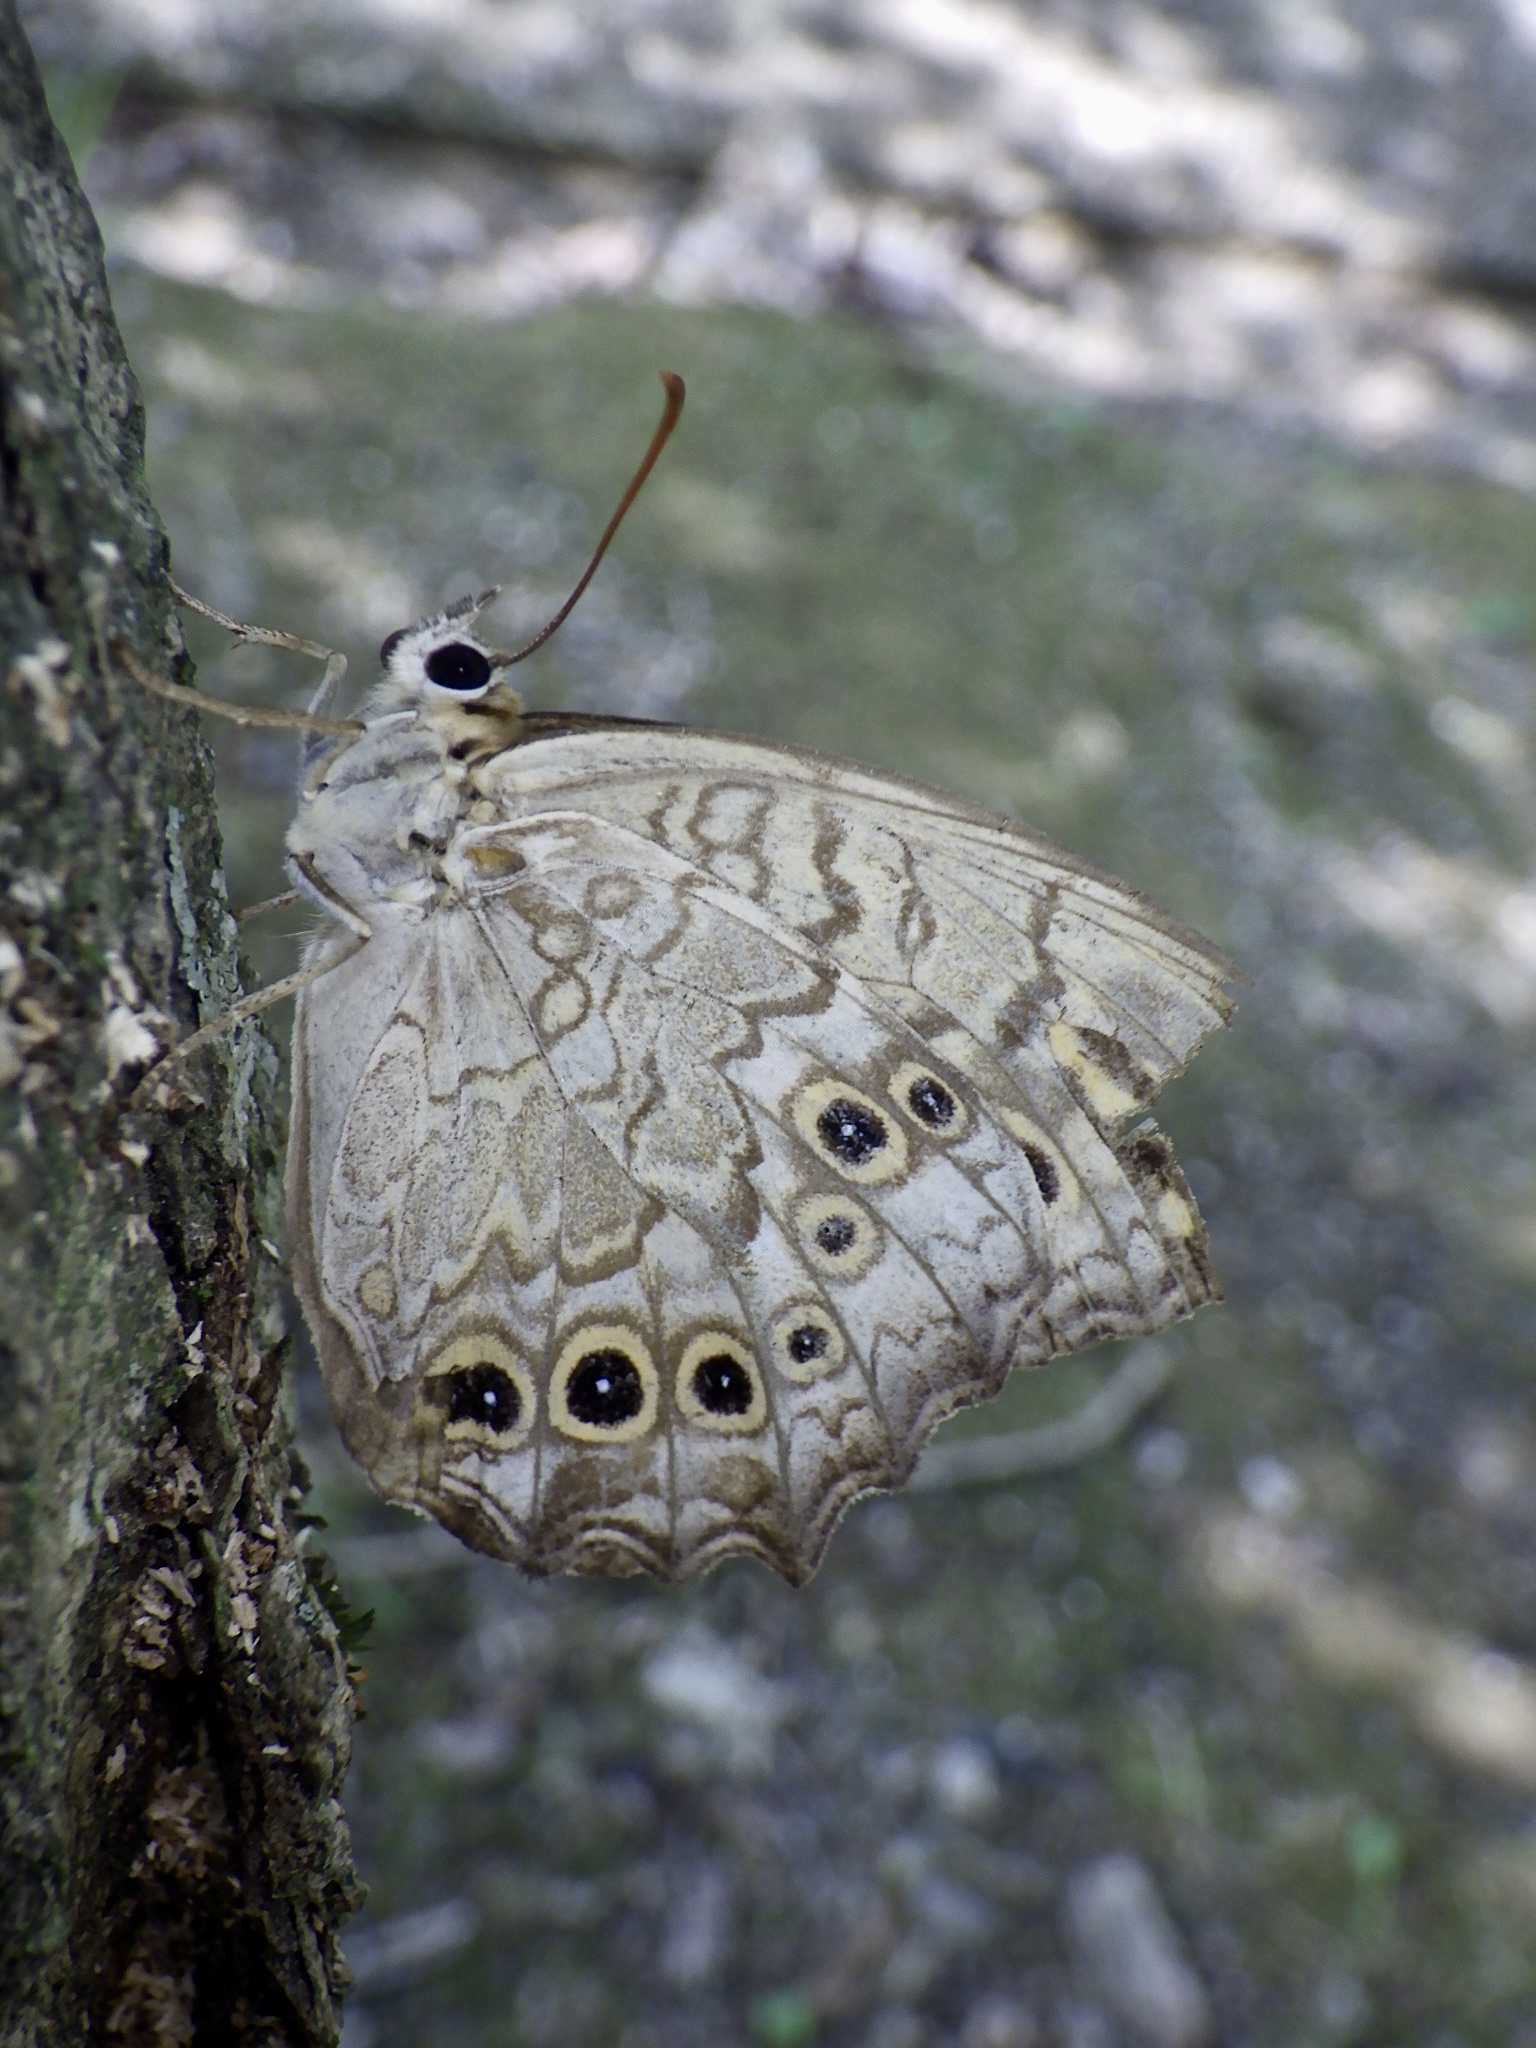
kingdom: Animalia
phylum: Arthropoda
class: Insecta
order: Lepidoptera
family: Nymphalidae
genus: Neope
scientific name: Neope goschkevitschii
